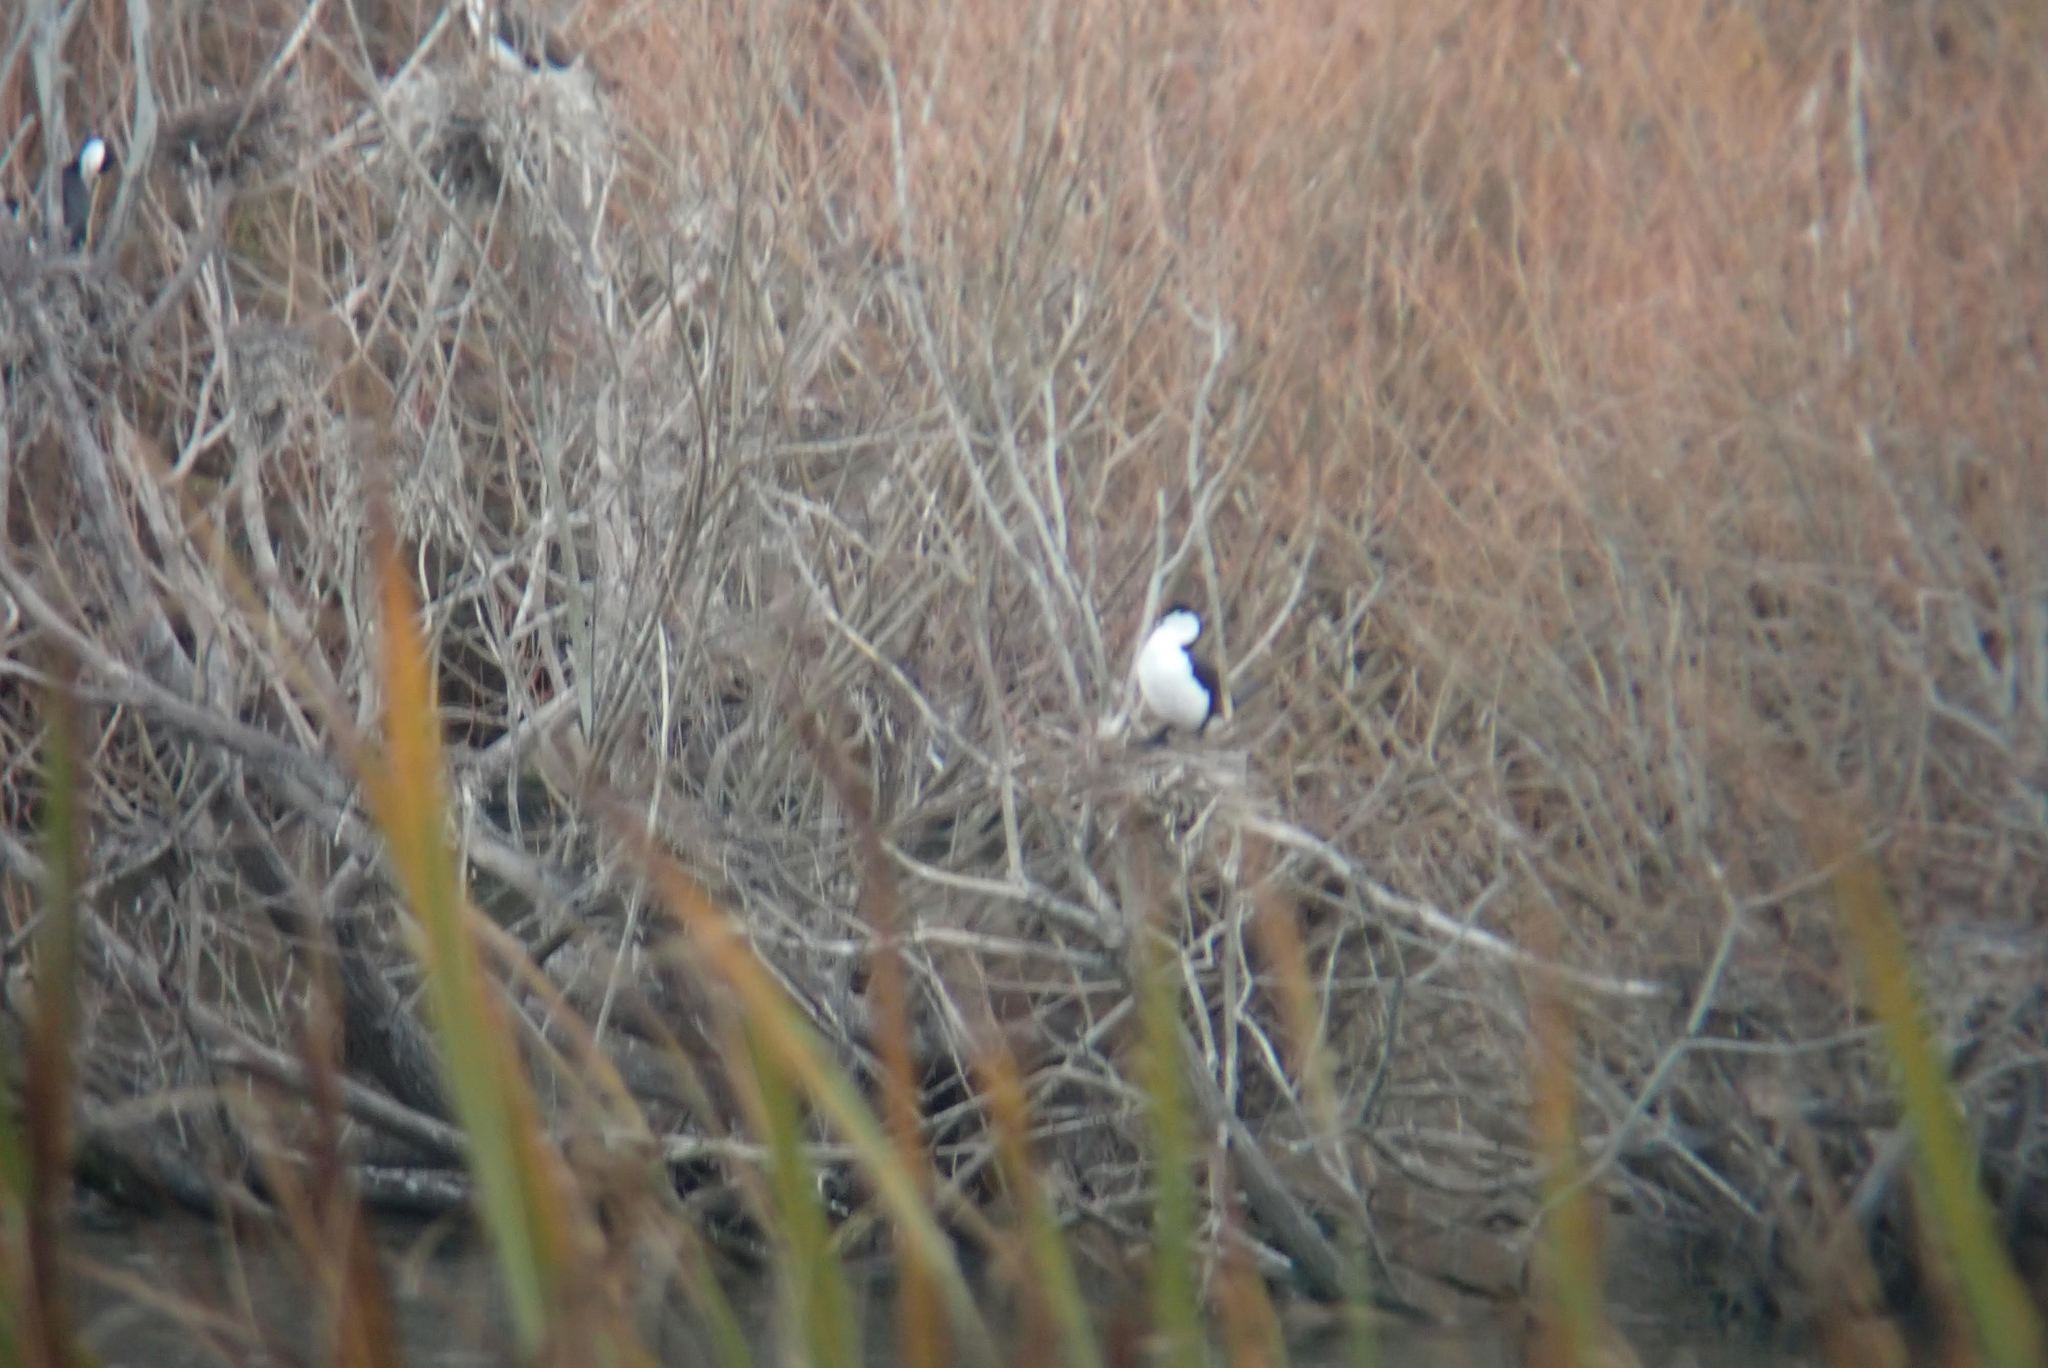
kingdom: Animalia
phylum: Chordata
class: Aves
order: Suliformes
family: Phalacrocoracidae
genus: Phalacrocorax
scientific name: Phalacrocorax varius
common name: Pied cormorant
